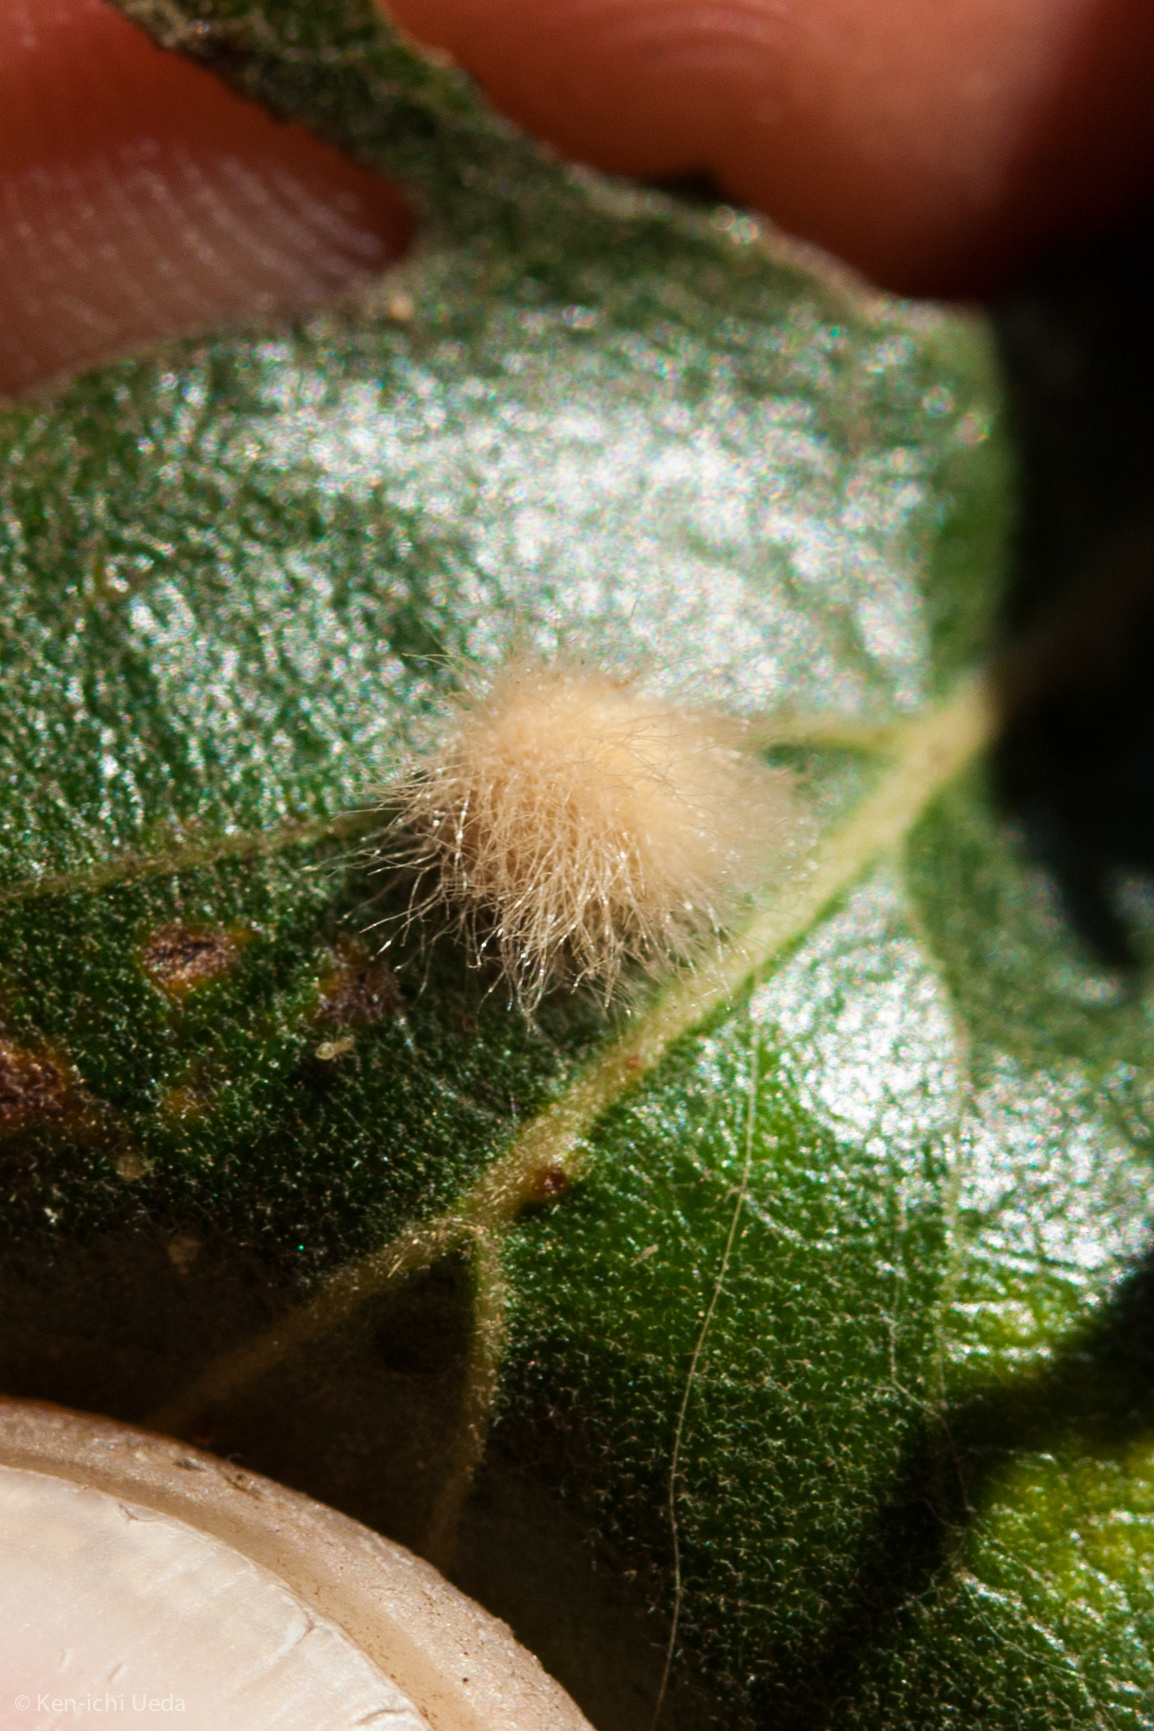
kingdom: Animalia
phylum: Arthropoda
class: Insecta
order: Hymenoptera
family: Cynipidae
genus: Andricus
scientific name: Andricus Druon fullawayi
